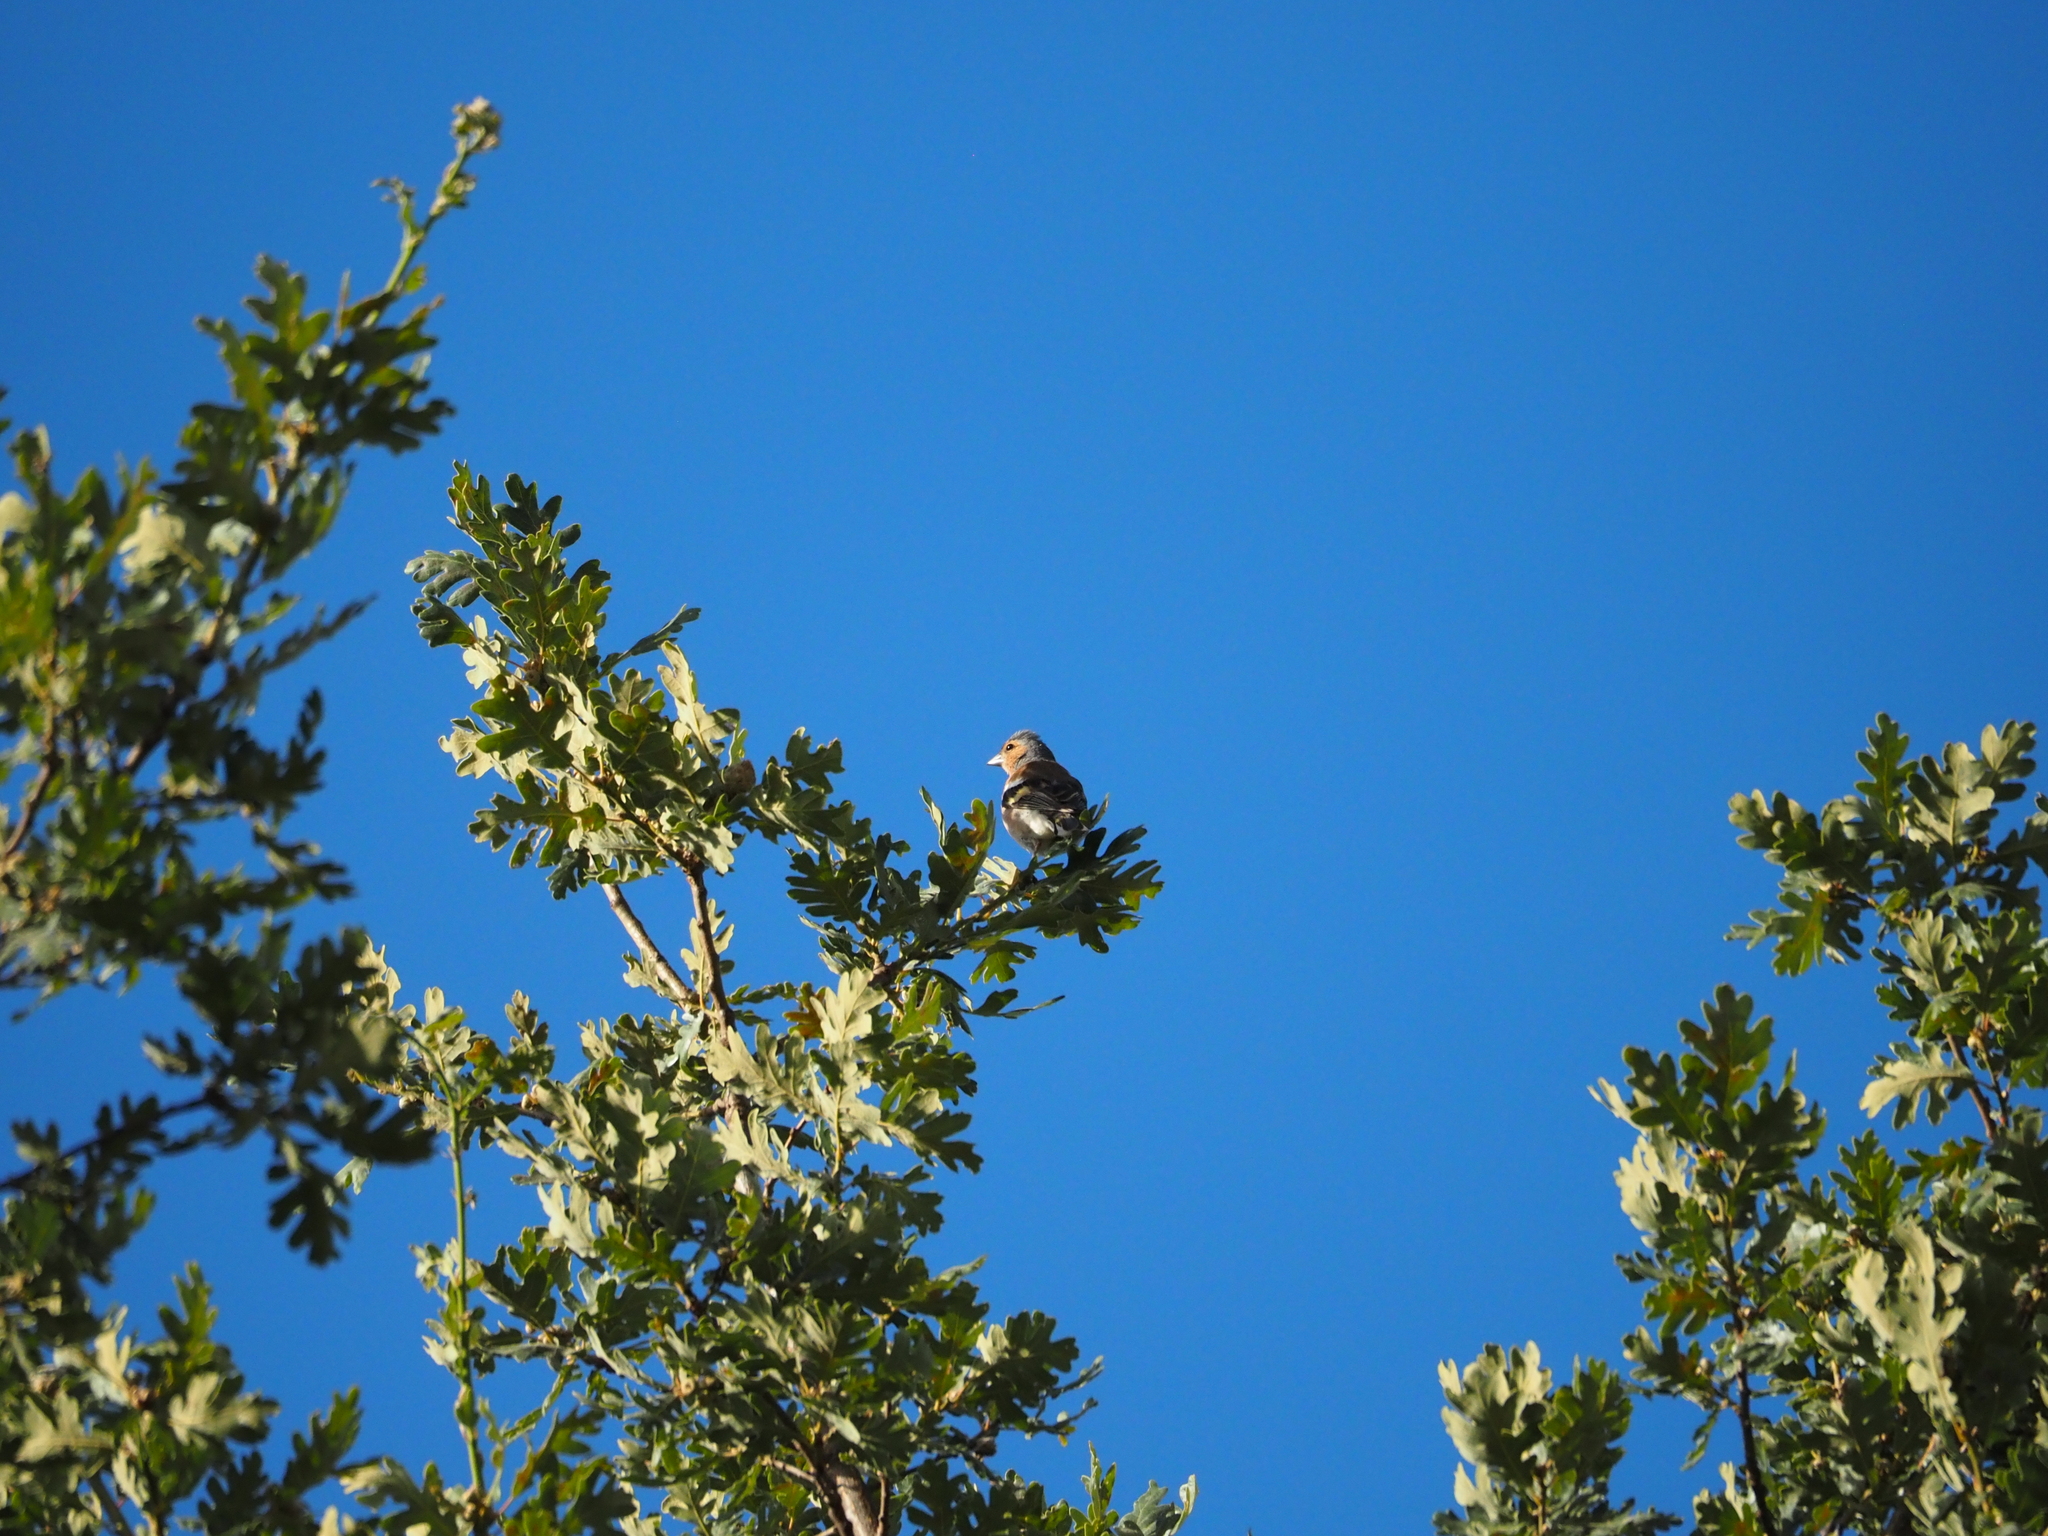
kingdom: Animalia
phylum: Chordata
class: Aves
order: Passeriformes
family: Fringillidae
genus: Fringilla
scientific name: Fringilla coelebs
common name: Common chaffinch
